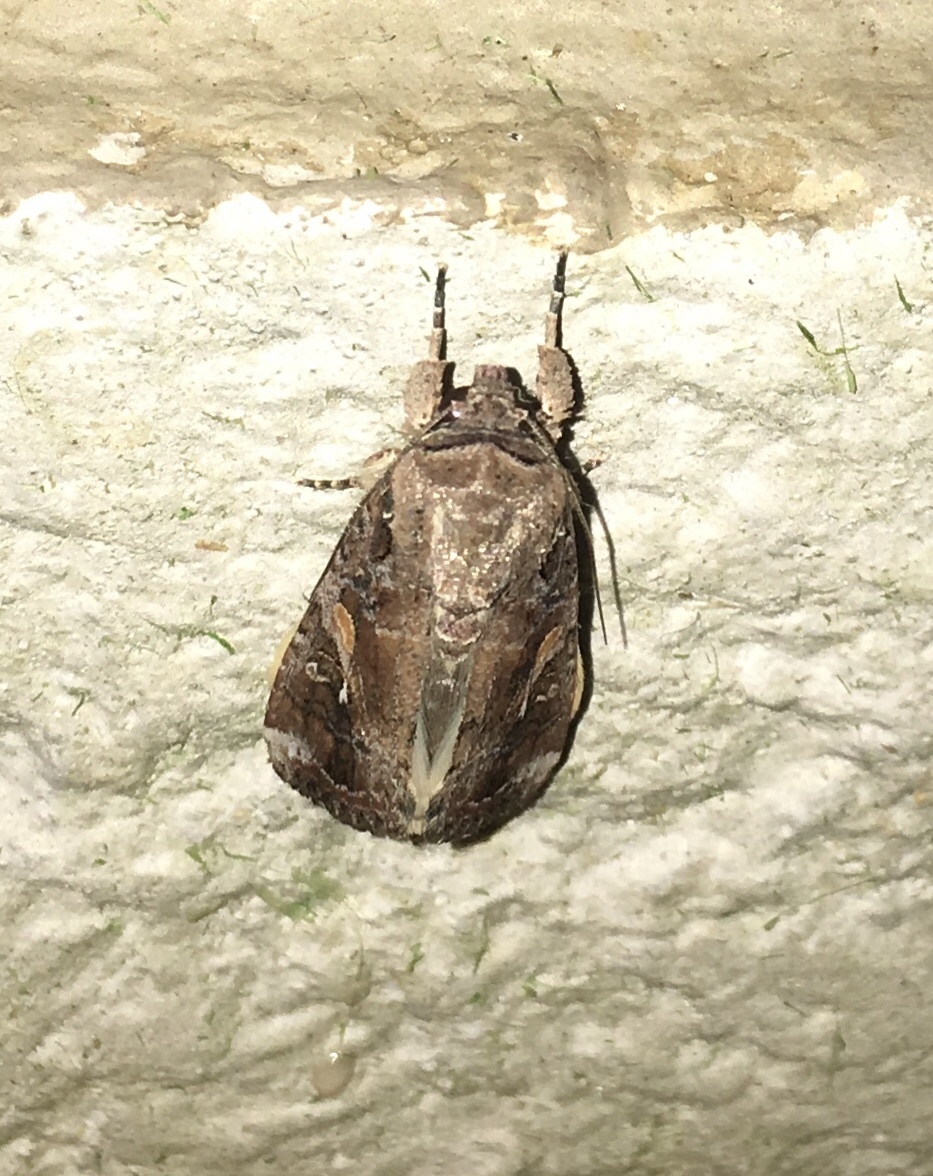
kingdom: Animalia
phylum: Arthropoda
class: Insecta
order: Lepidoptera
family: Noctuidae
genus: Spodoptera
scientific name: Spodoptera frugiperda
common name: Fall armyworm
